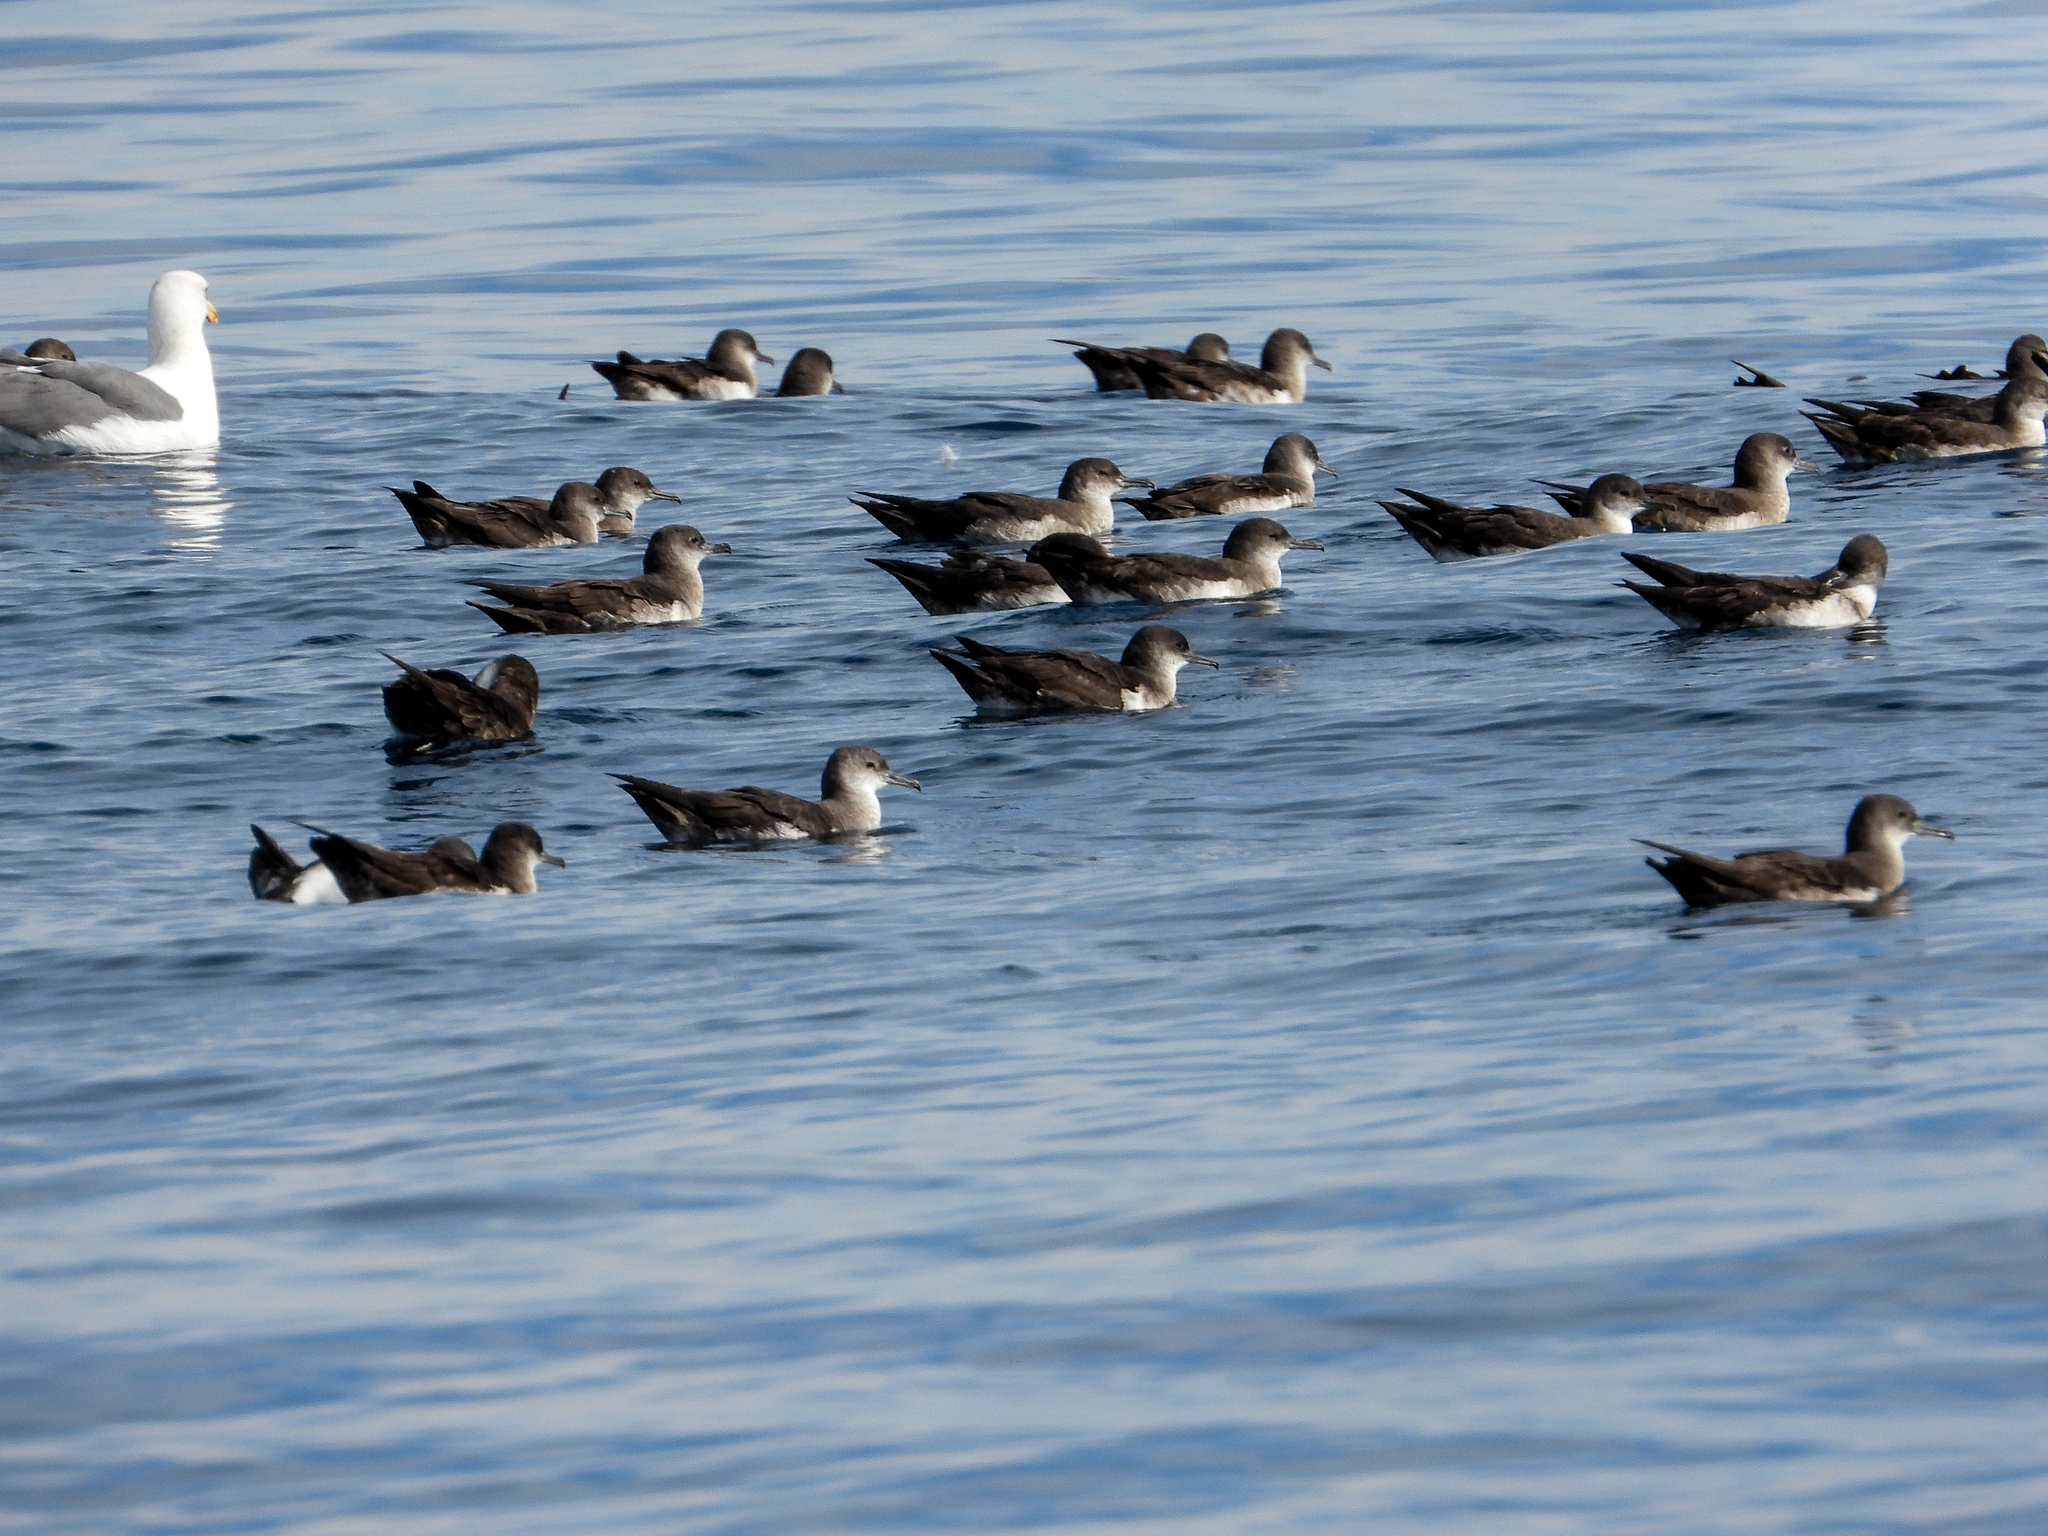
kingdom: Animalia
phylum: Chordata
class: Aves
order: Procellariiformes
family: Procellariidae
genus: Puffinus
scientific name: Puffinus opisthomelas
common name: Black-vented shearwater
